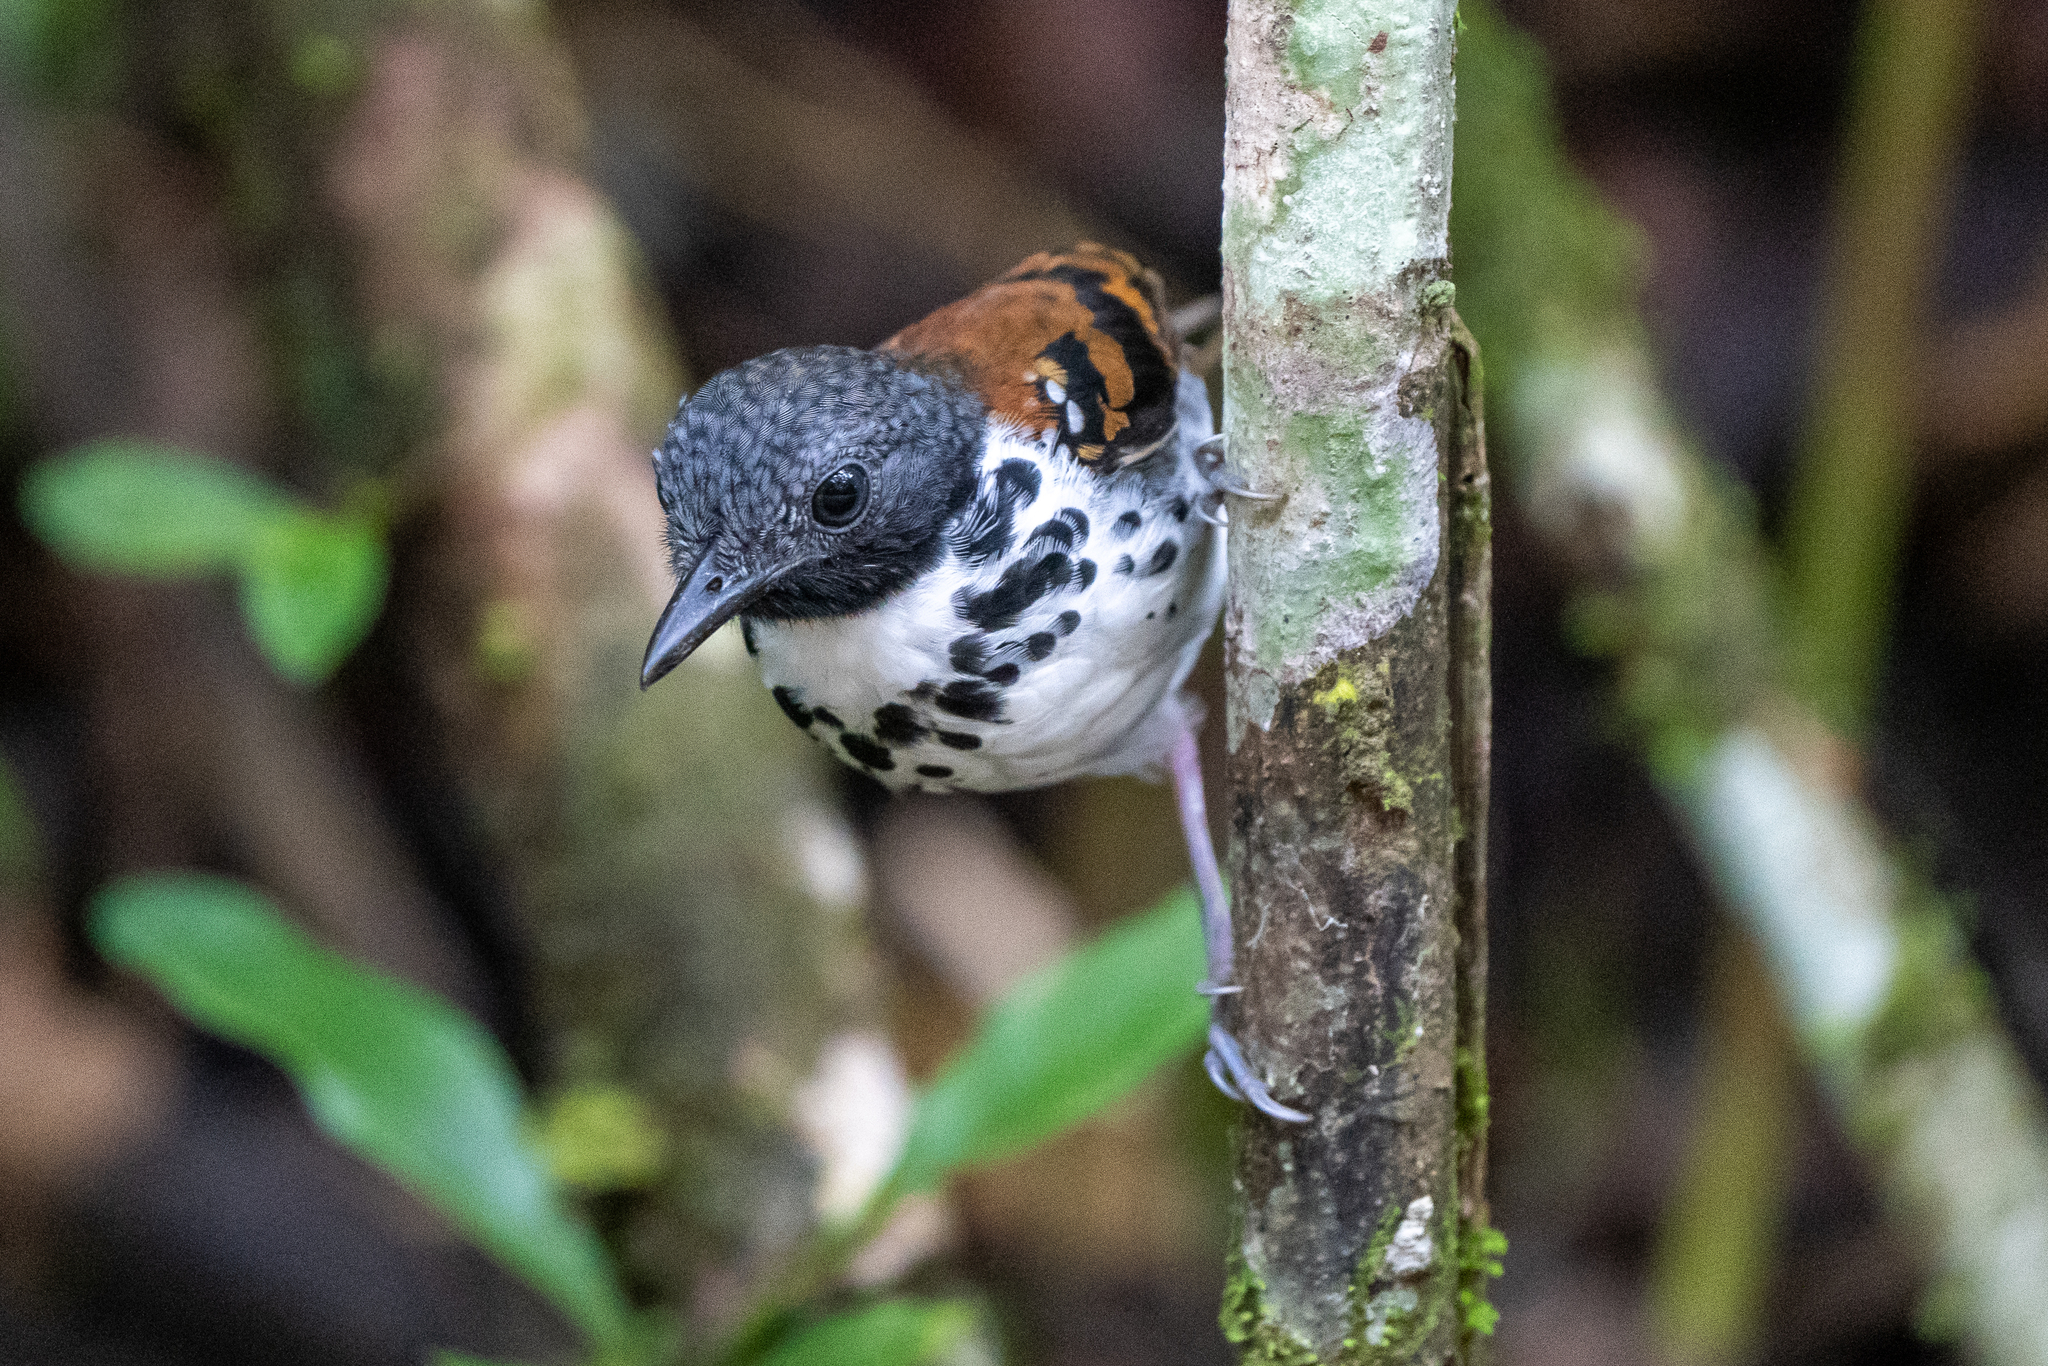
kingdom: Animalia
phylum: Chordata
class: Aves
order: Passeriformes
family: Thamnophilidae
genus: Hylophylax
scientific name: Hylophylax naevioides
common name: Spotted antbird
